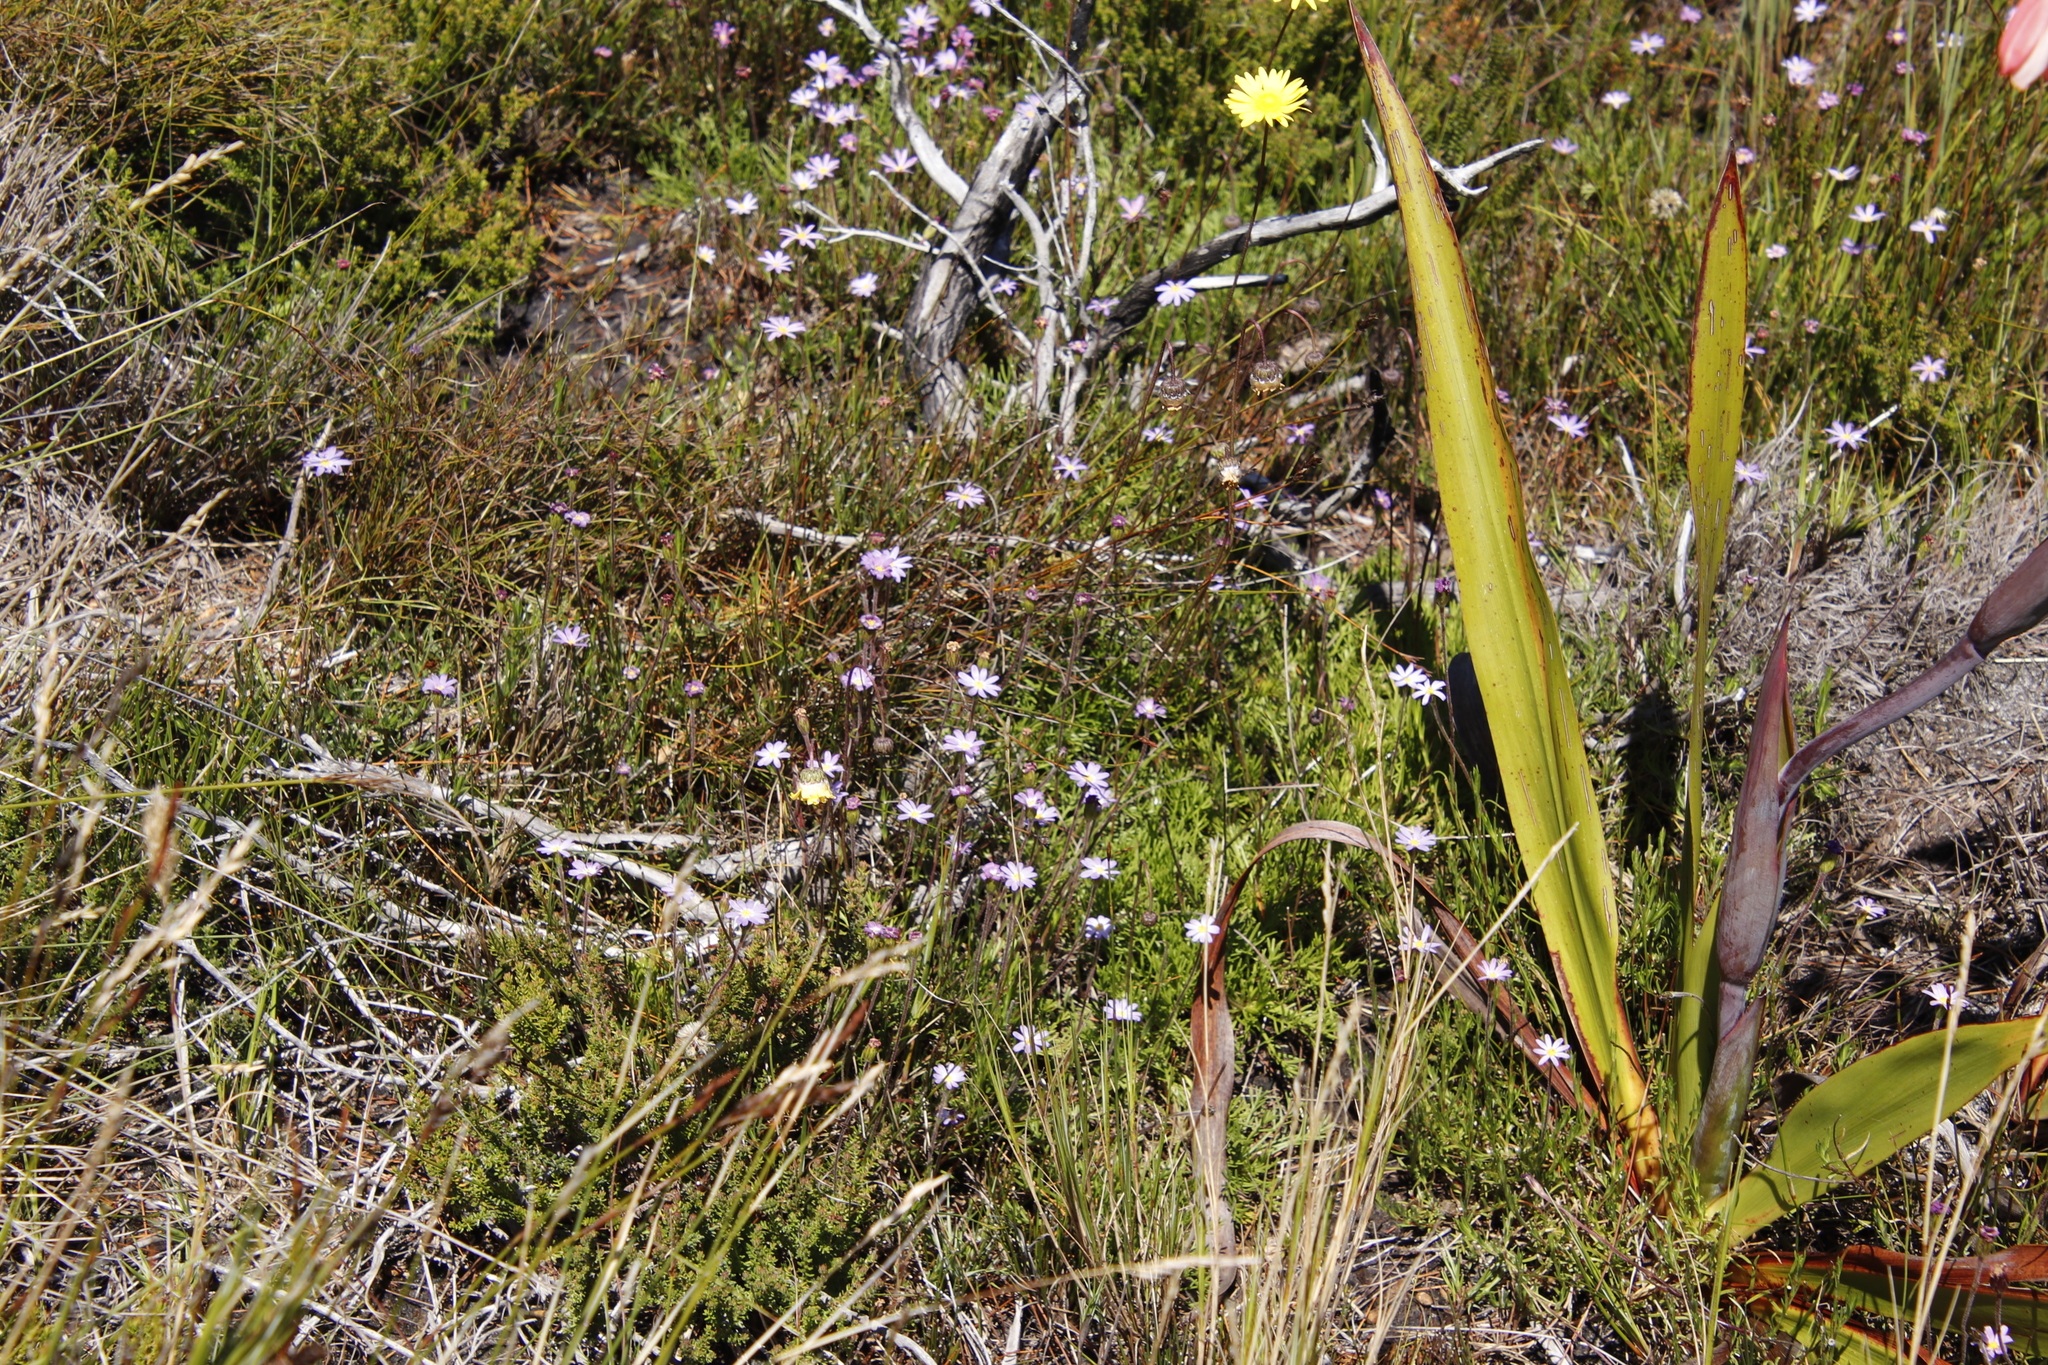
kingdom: Plantae
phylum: Tracheophyta
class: Magnoliopsida
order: Asterales
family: Asteraceae
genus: Zyrphelis
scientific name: Zyrphelis taxifolia
